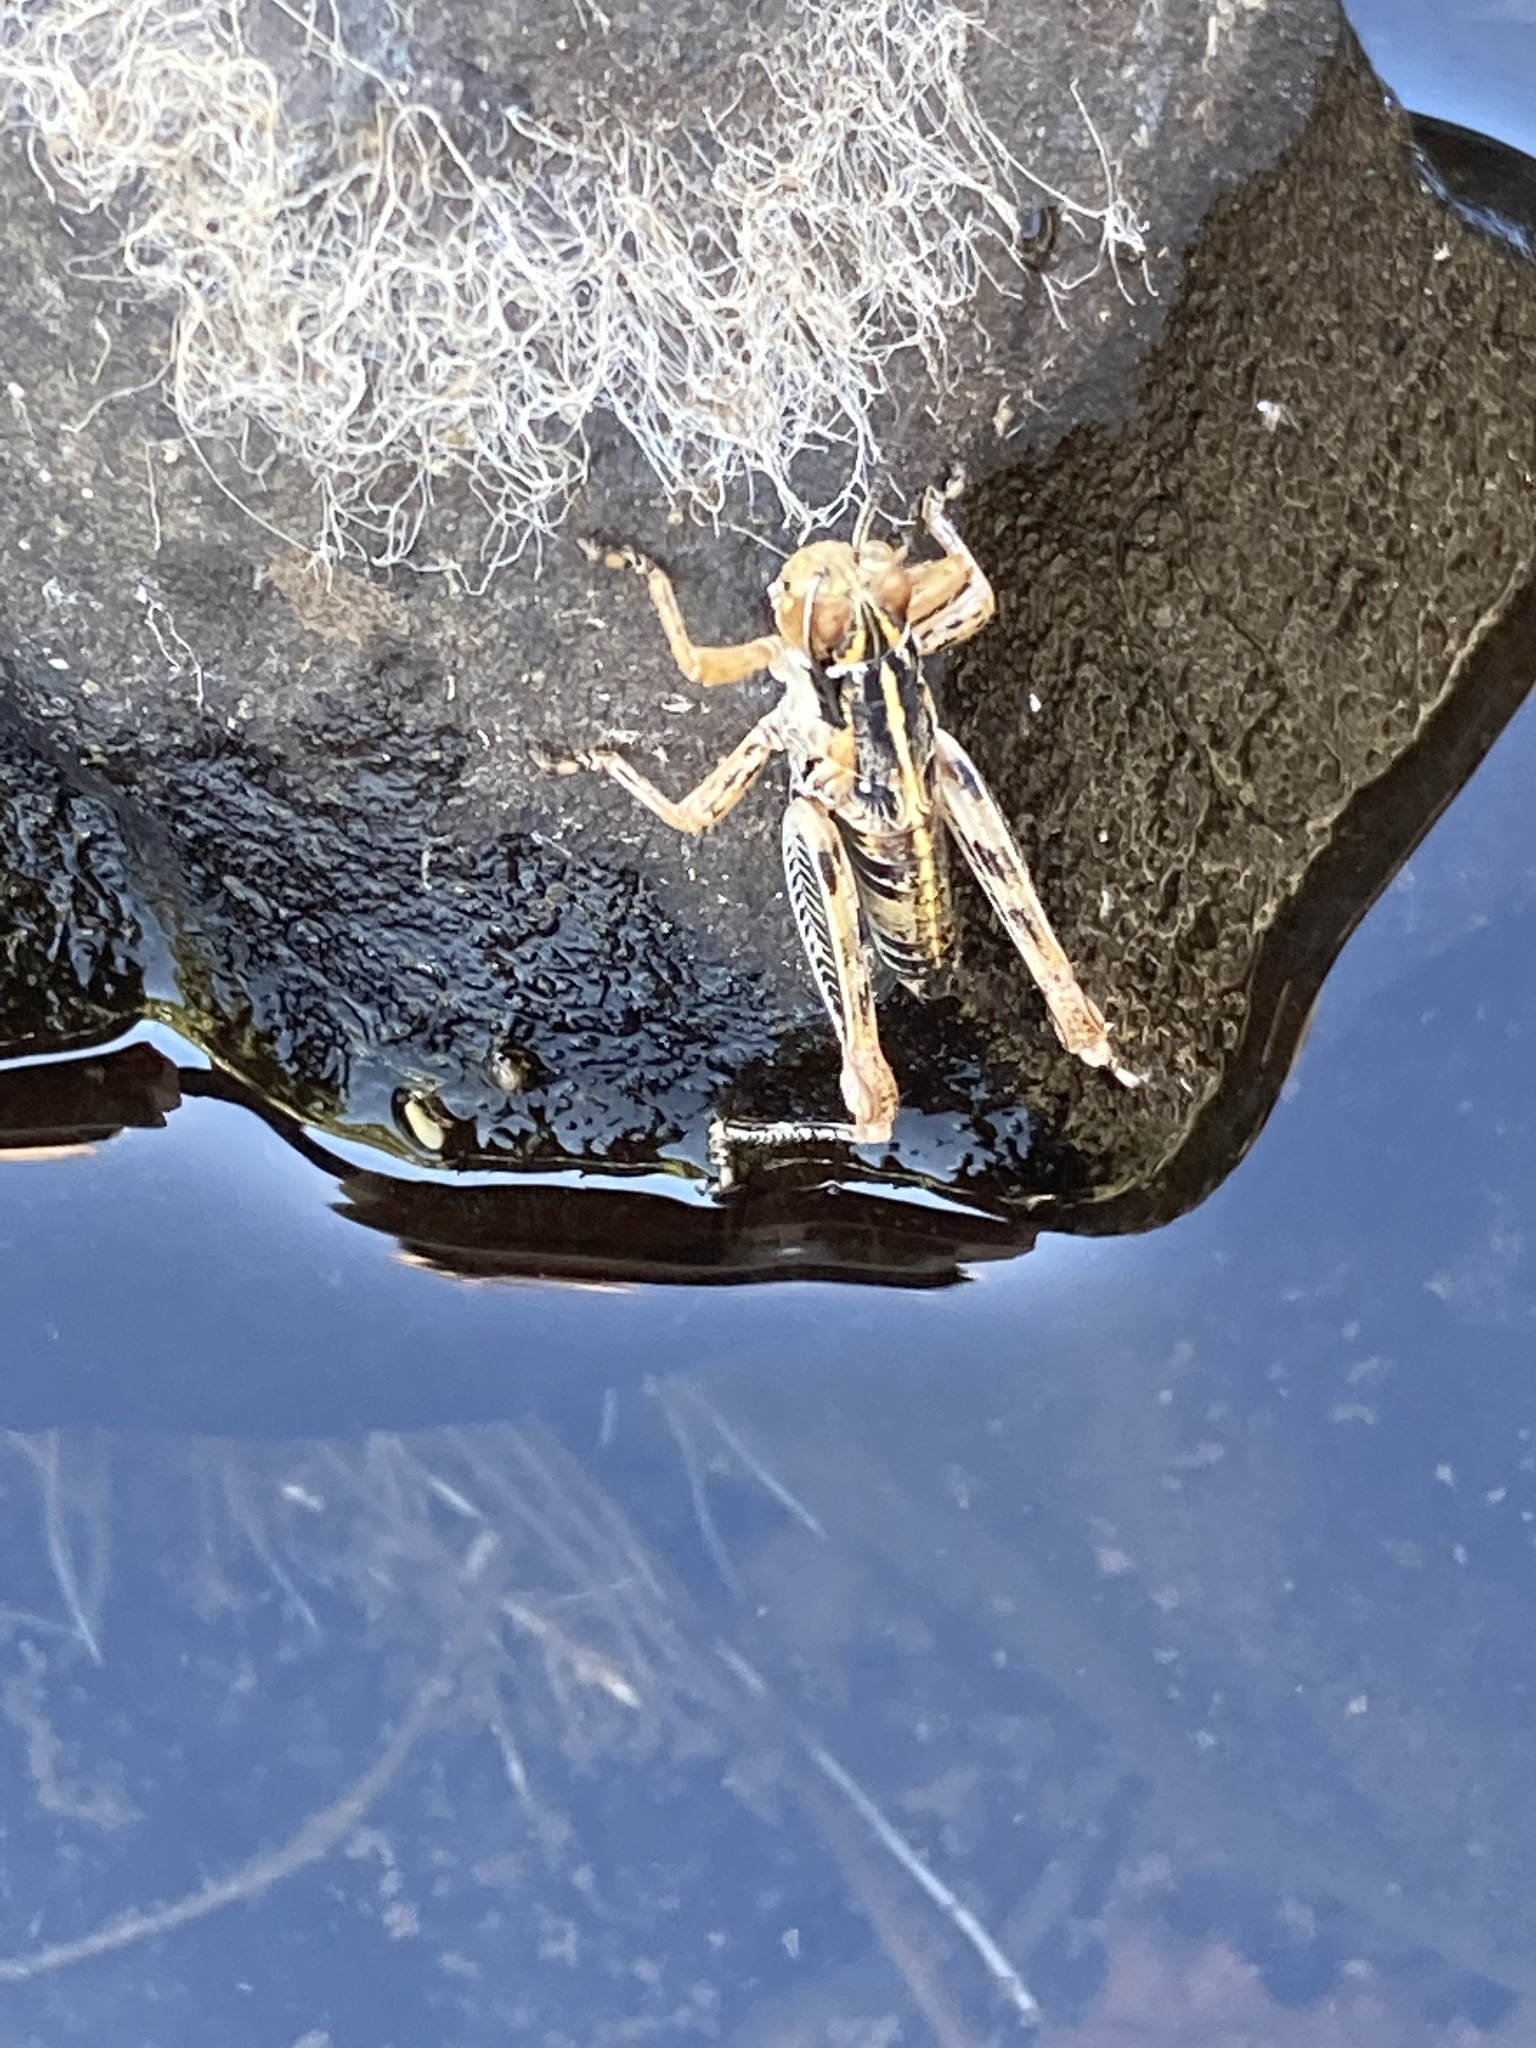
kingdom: Animalia
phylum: Arthropoda
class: Insecta
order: Orthoptera
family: Acrididae
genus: Oedaleonotus
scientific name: Oedaleonotus enigma
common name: Valley grasshopper
